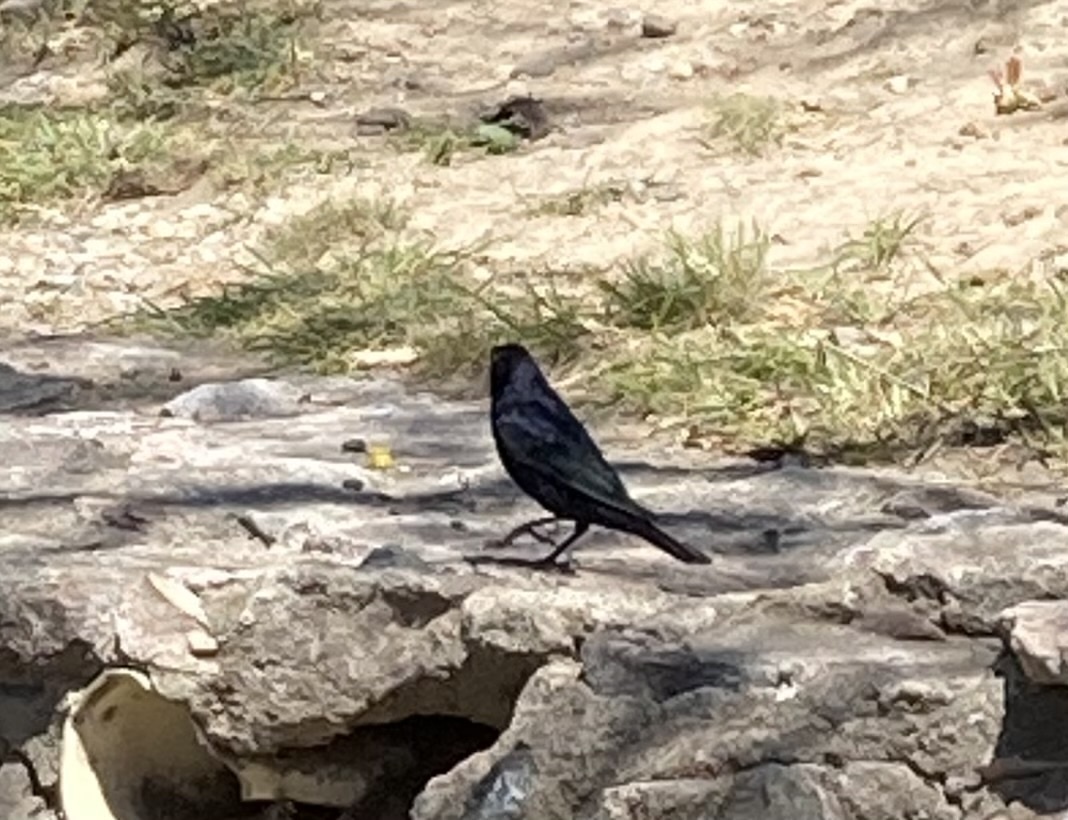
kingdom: Animalia
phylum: Chordata
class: Aves
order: Passeriformes
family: Icteridae
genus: Molothrus
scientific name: Molothrus bonariensis
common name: Shiny cowbird
